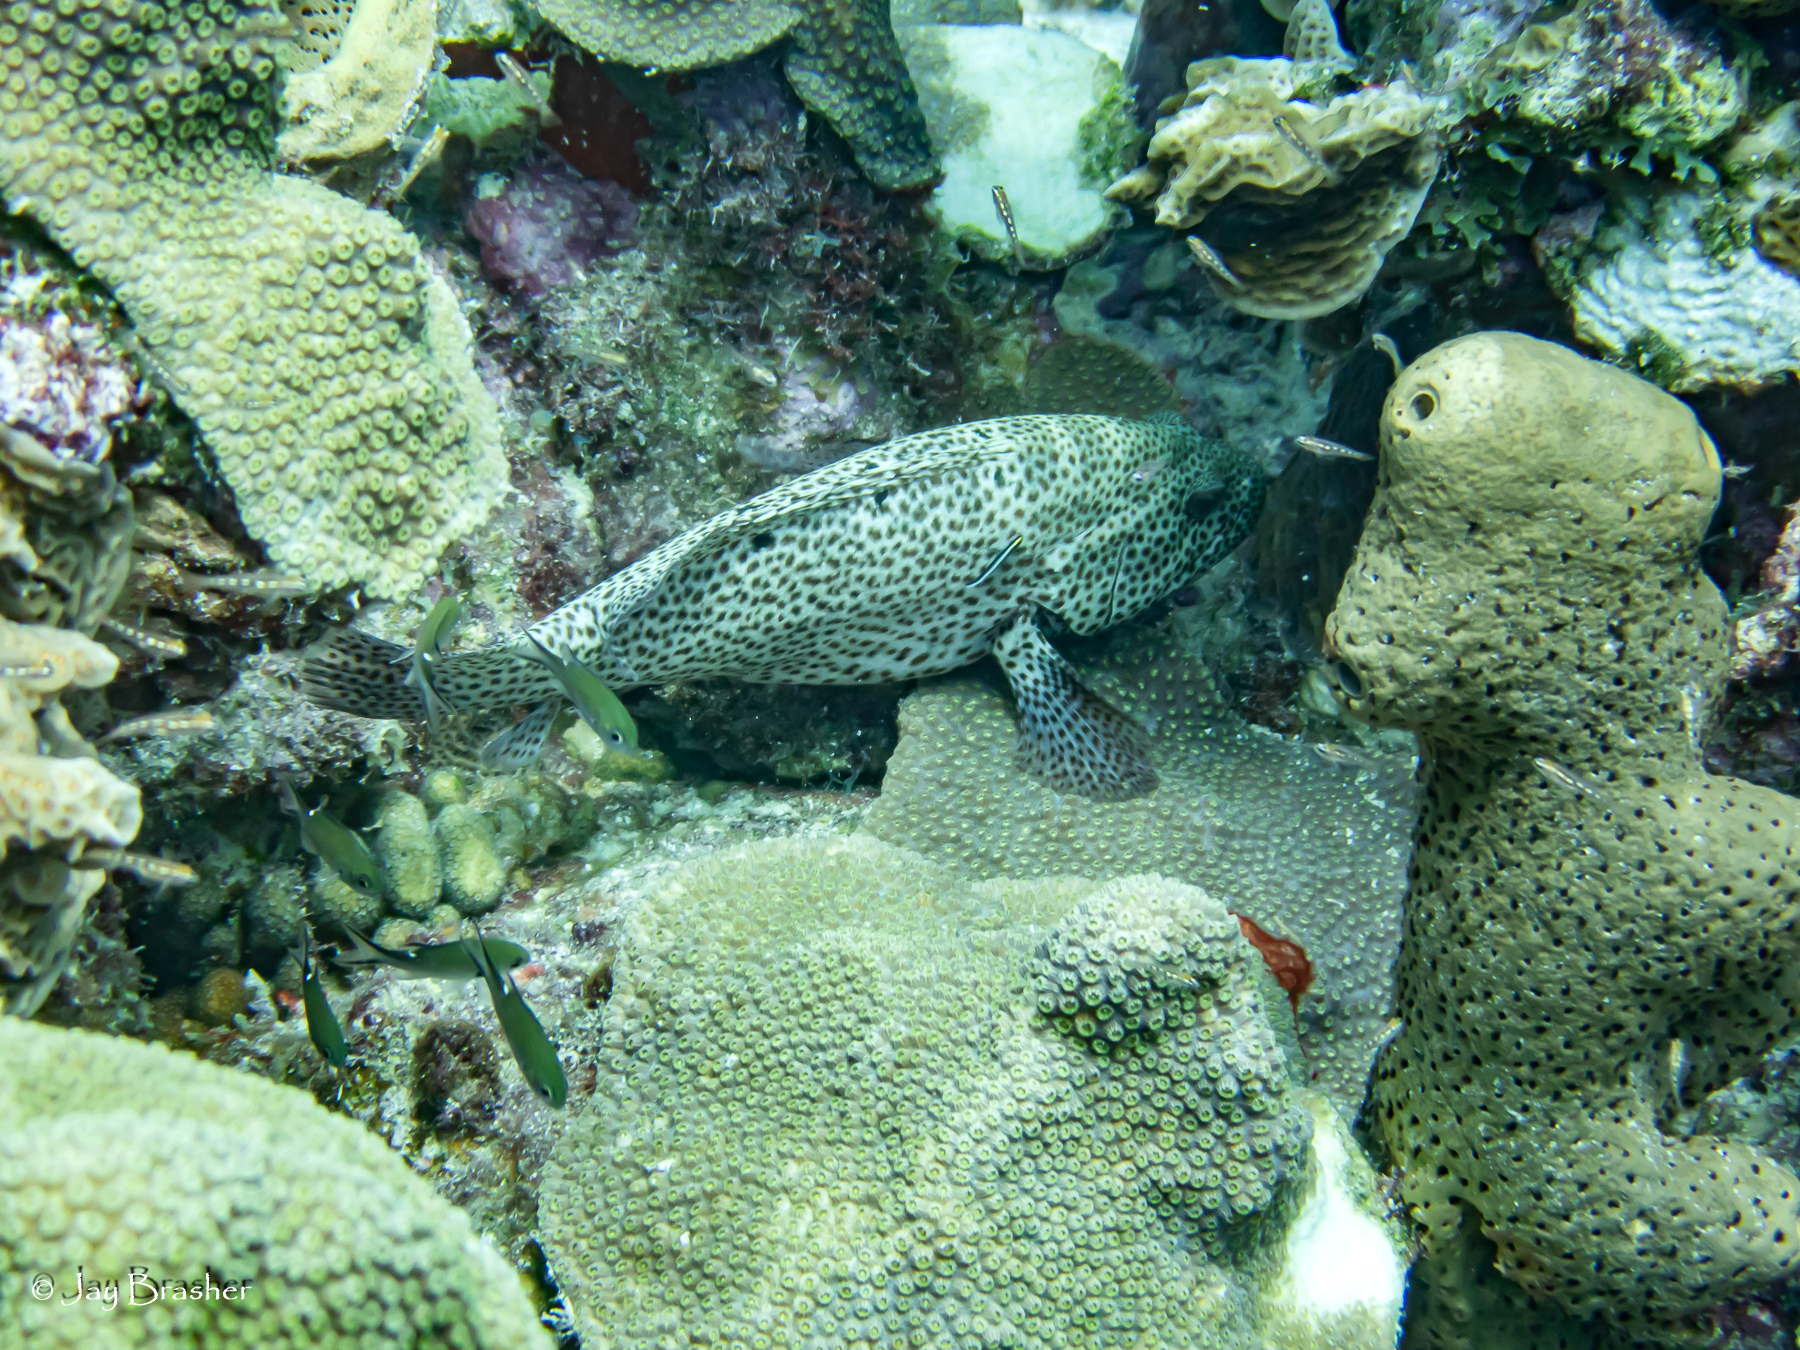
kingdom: Animalia
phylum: Chordata
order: Perciformes
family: Serranidae
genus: Cephalopholis
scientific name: Cephalopholis cruentata
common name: Graysby
